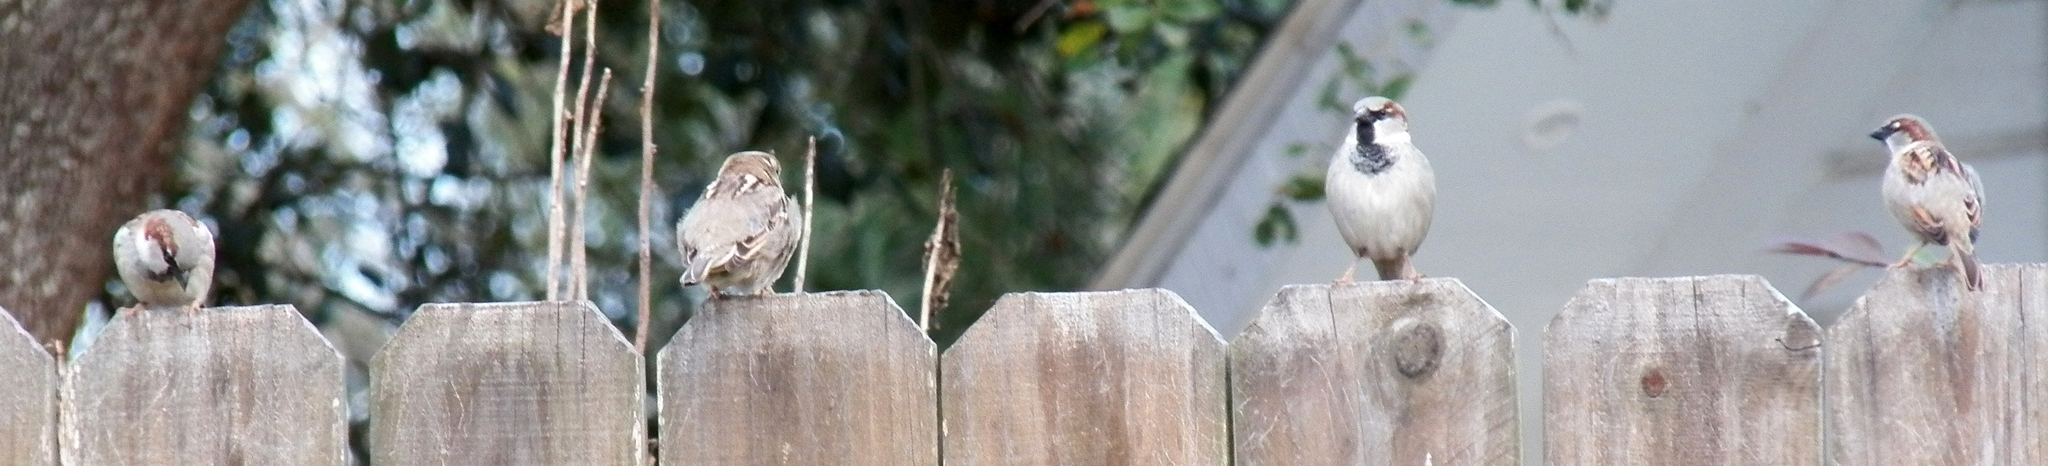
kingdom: Animalia
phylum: Chordata
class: Aves
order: Passeriformes
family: Passeridae
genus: Passer
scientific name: Passer domesticus
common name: House sparrow
